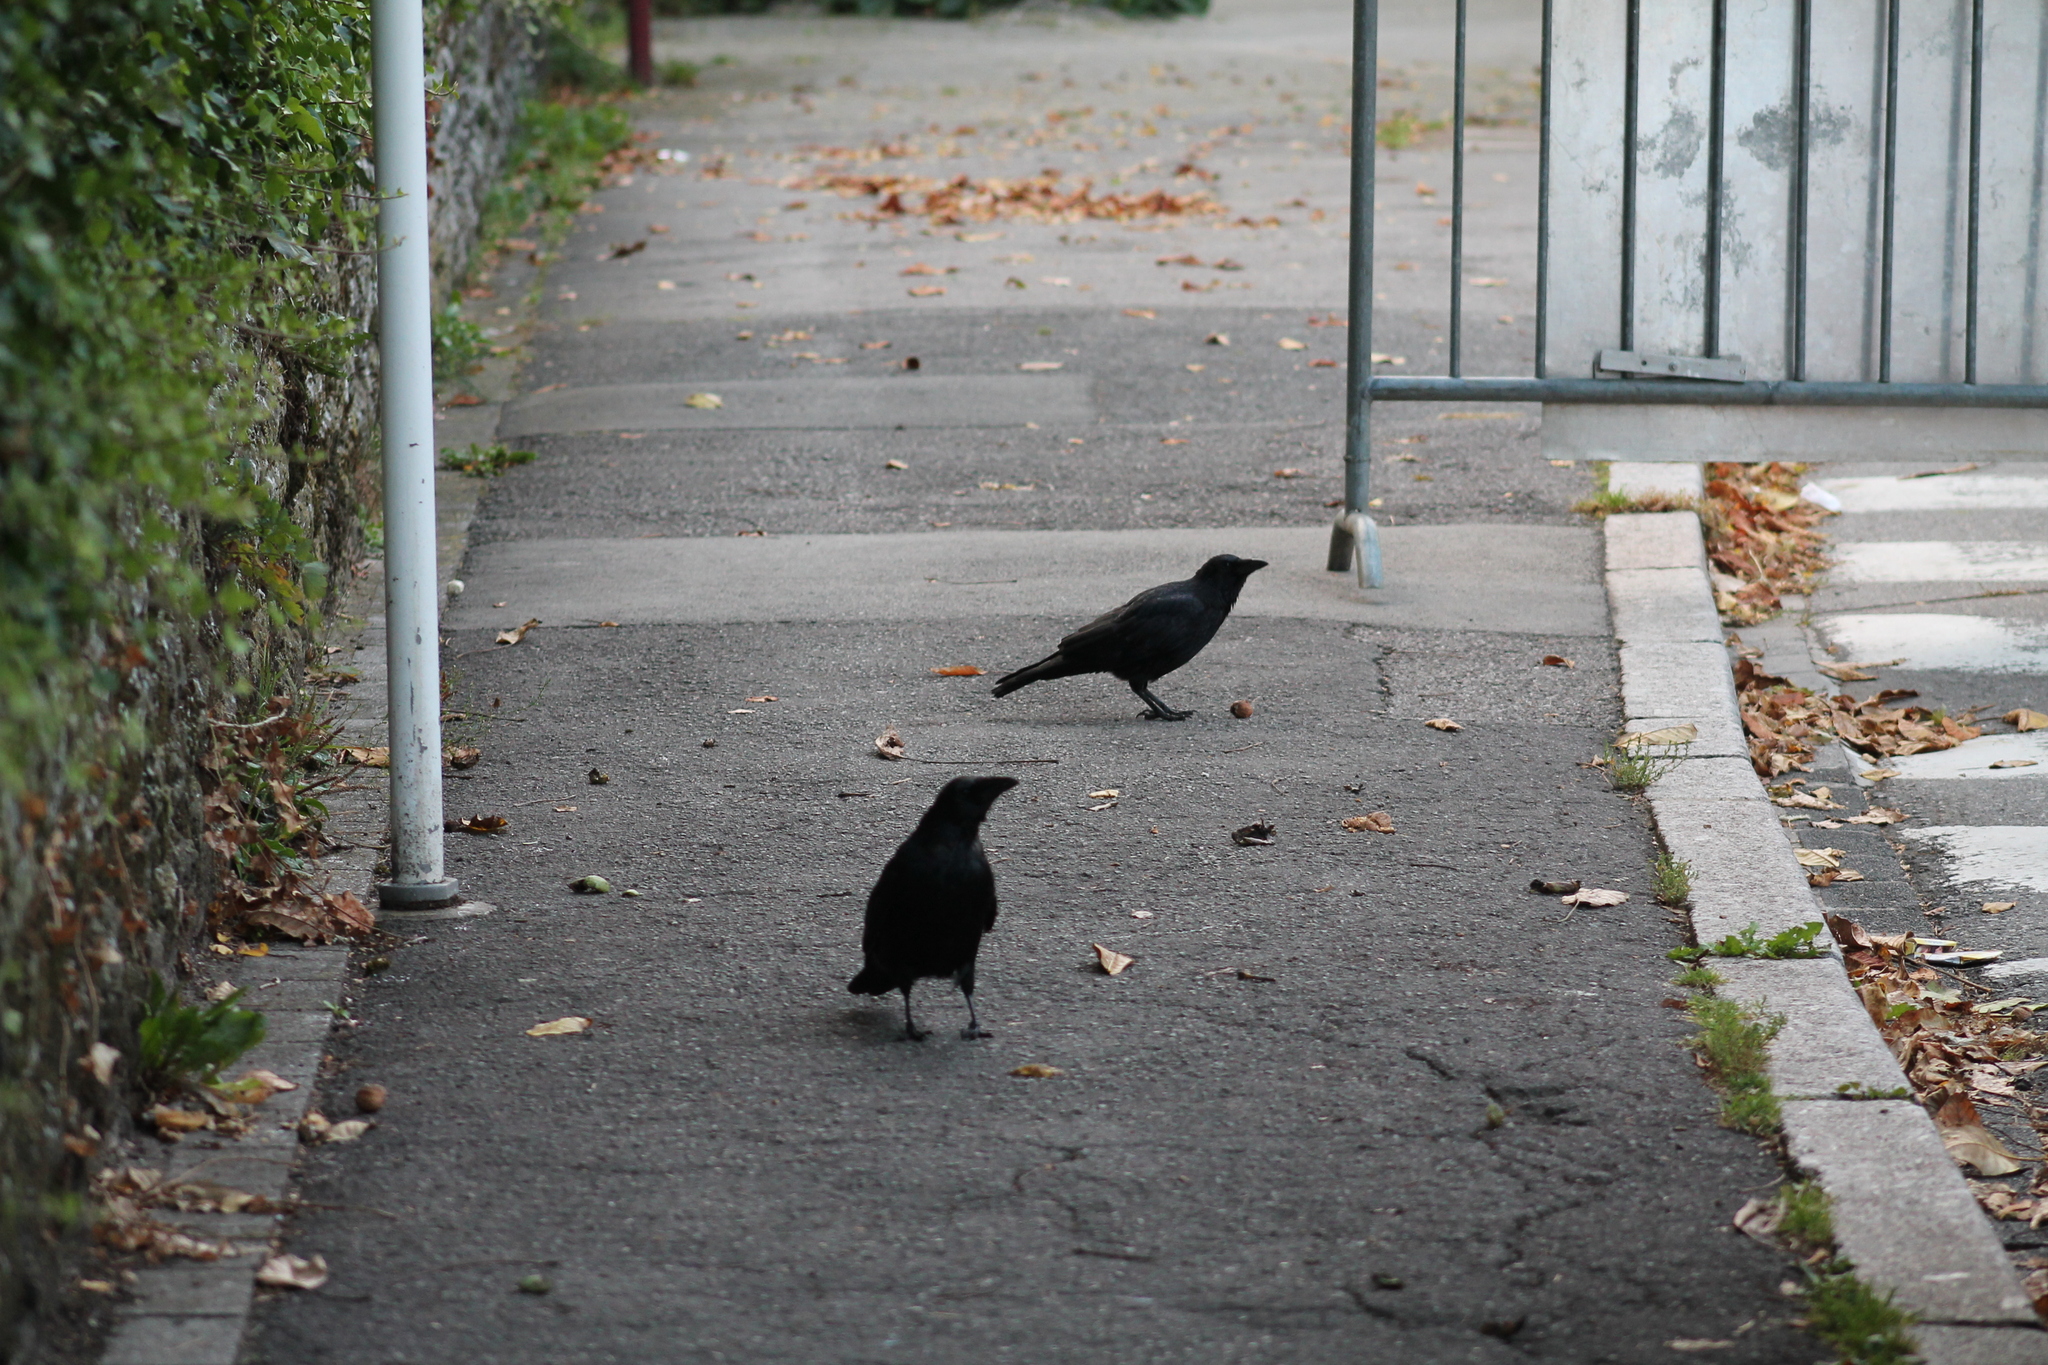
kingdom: Animalia
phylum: Chordata
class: Aves
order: Passeriformes
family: Corvidae
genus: Corvus
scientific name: Corvus corone
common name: Carrion crow
